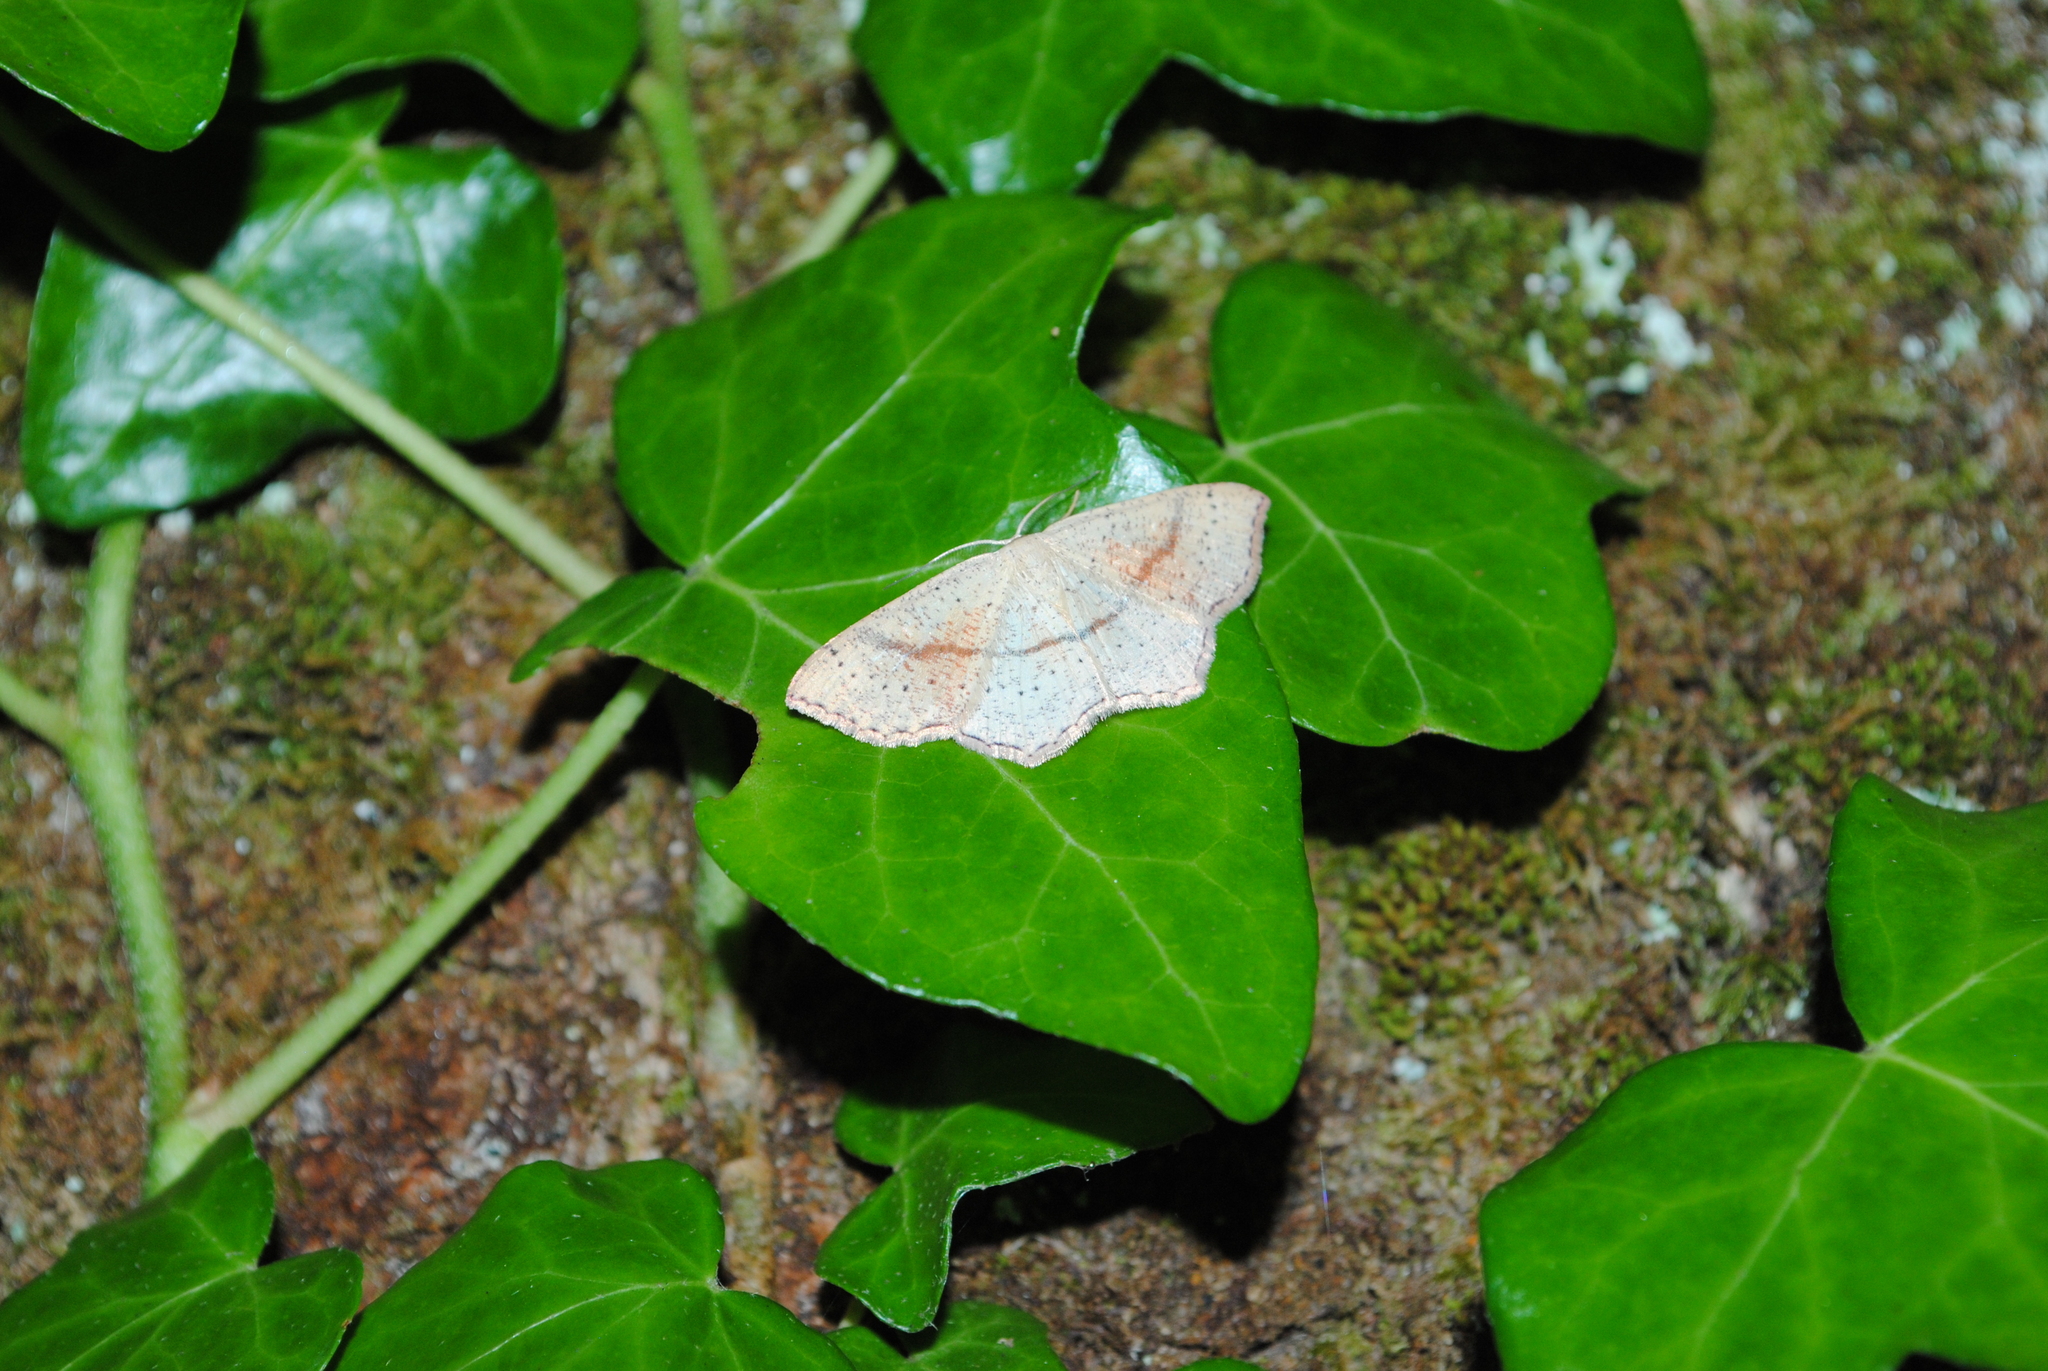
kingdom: Animalia
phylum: Arthropoda
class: Insecta
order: Lepidoptera
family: Geometridae
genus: Cyclophora
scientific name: Cyclophora punctaria
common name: Maiden's blush
